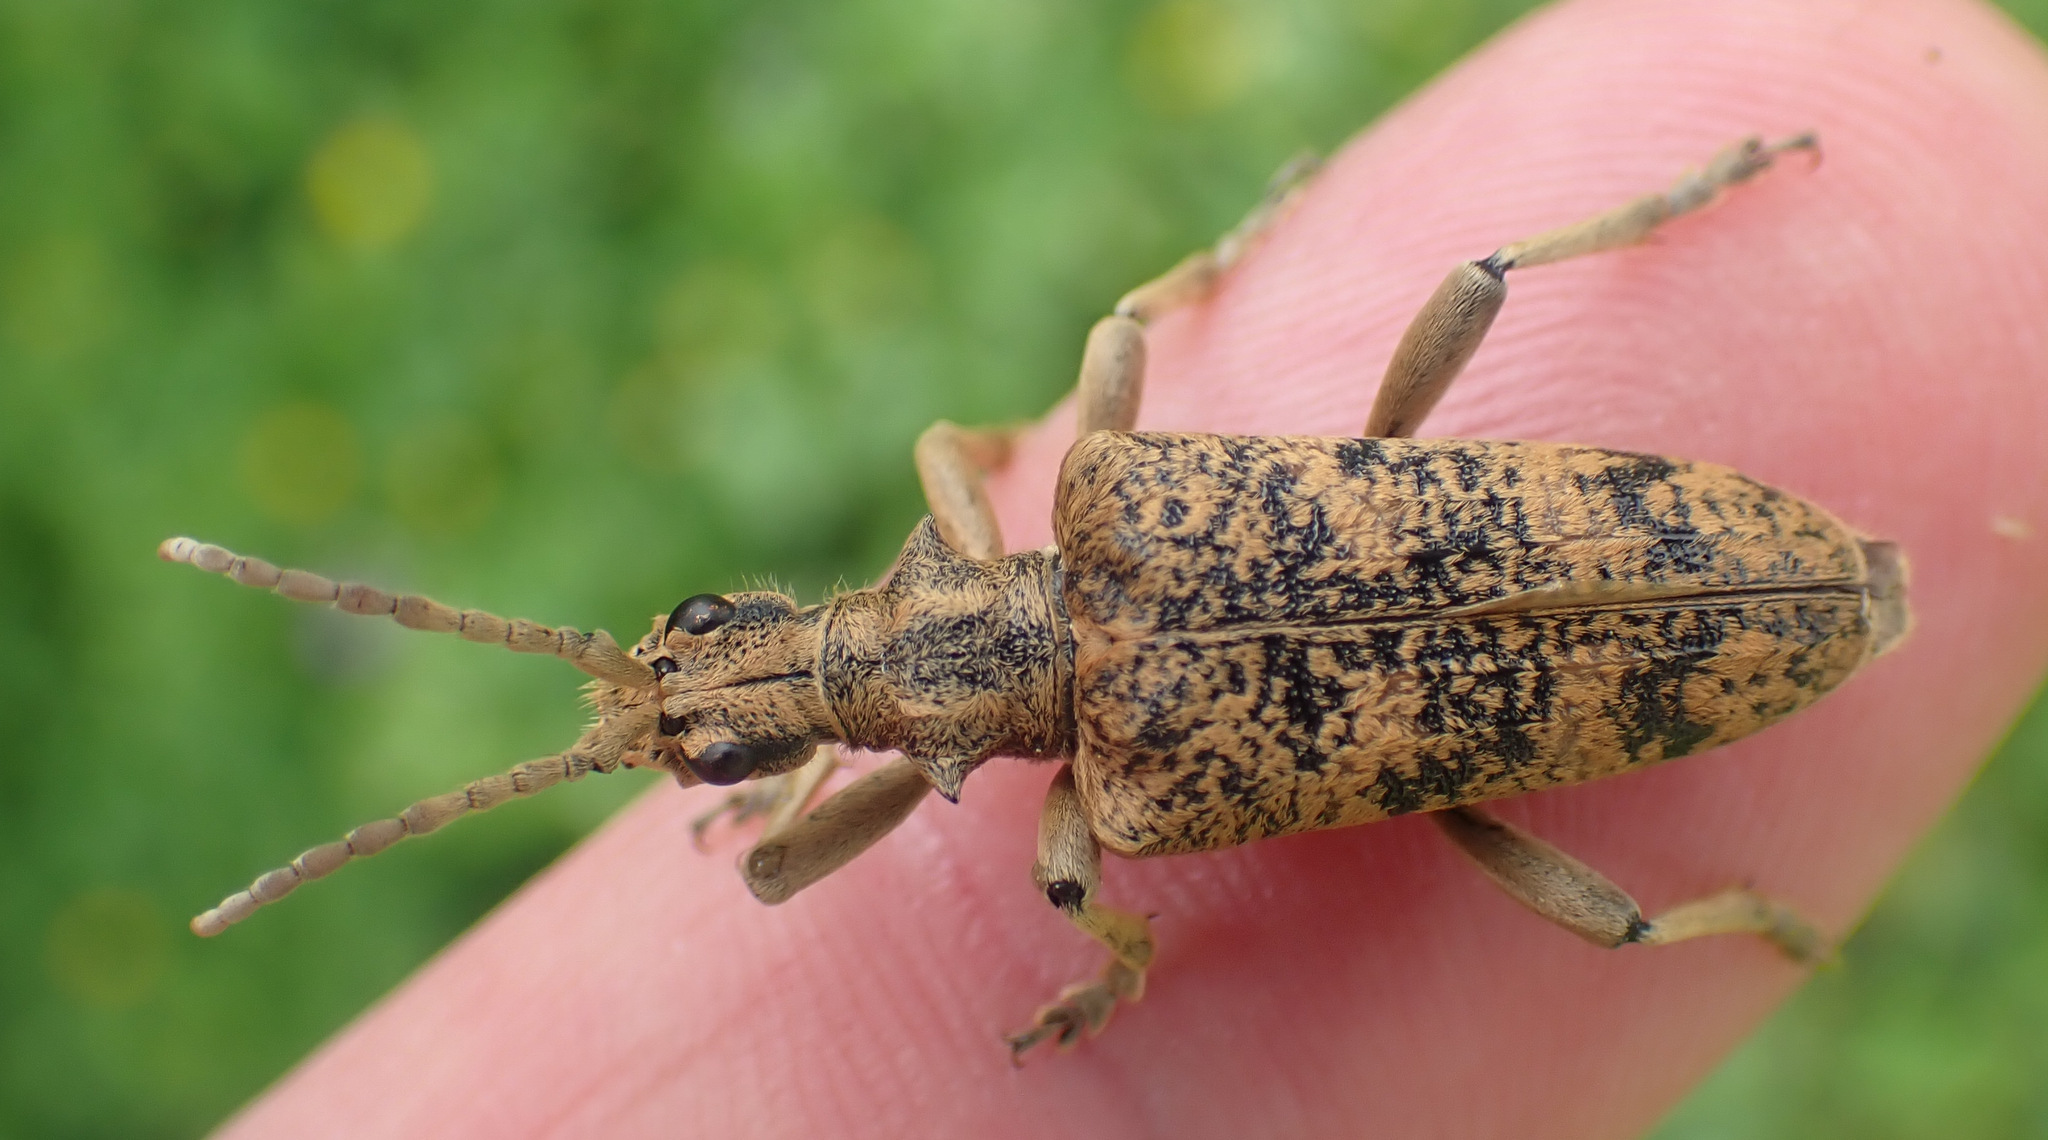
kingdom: Animalia
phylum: Arthropoda
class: Insecta
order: Coleoptera
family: Cerambycidae
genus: Rhagium
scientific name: Rhagium sycophanta
